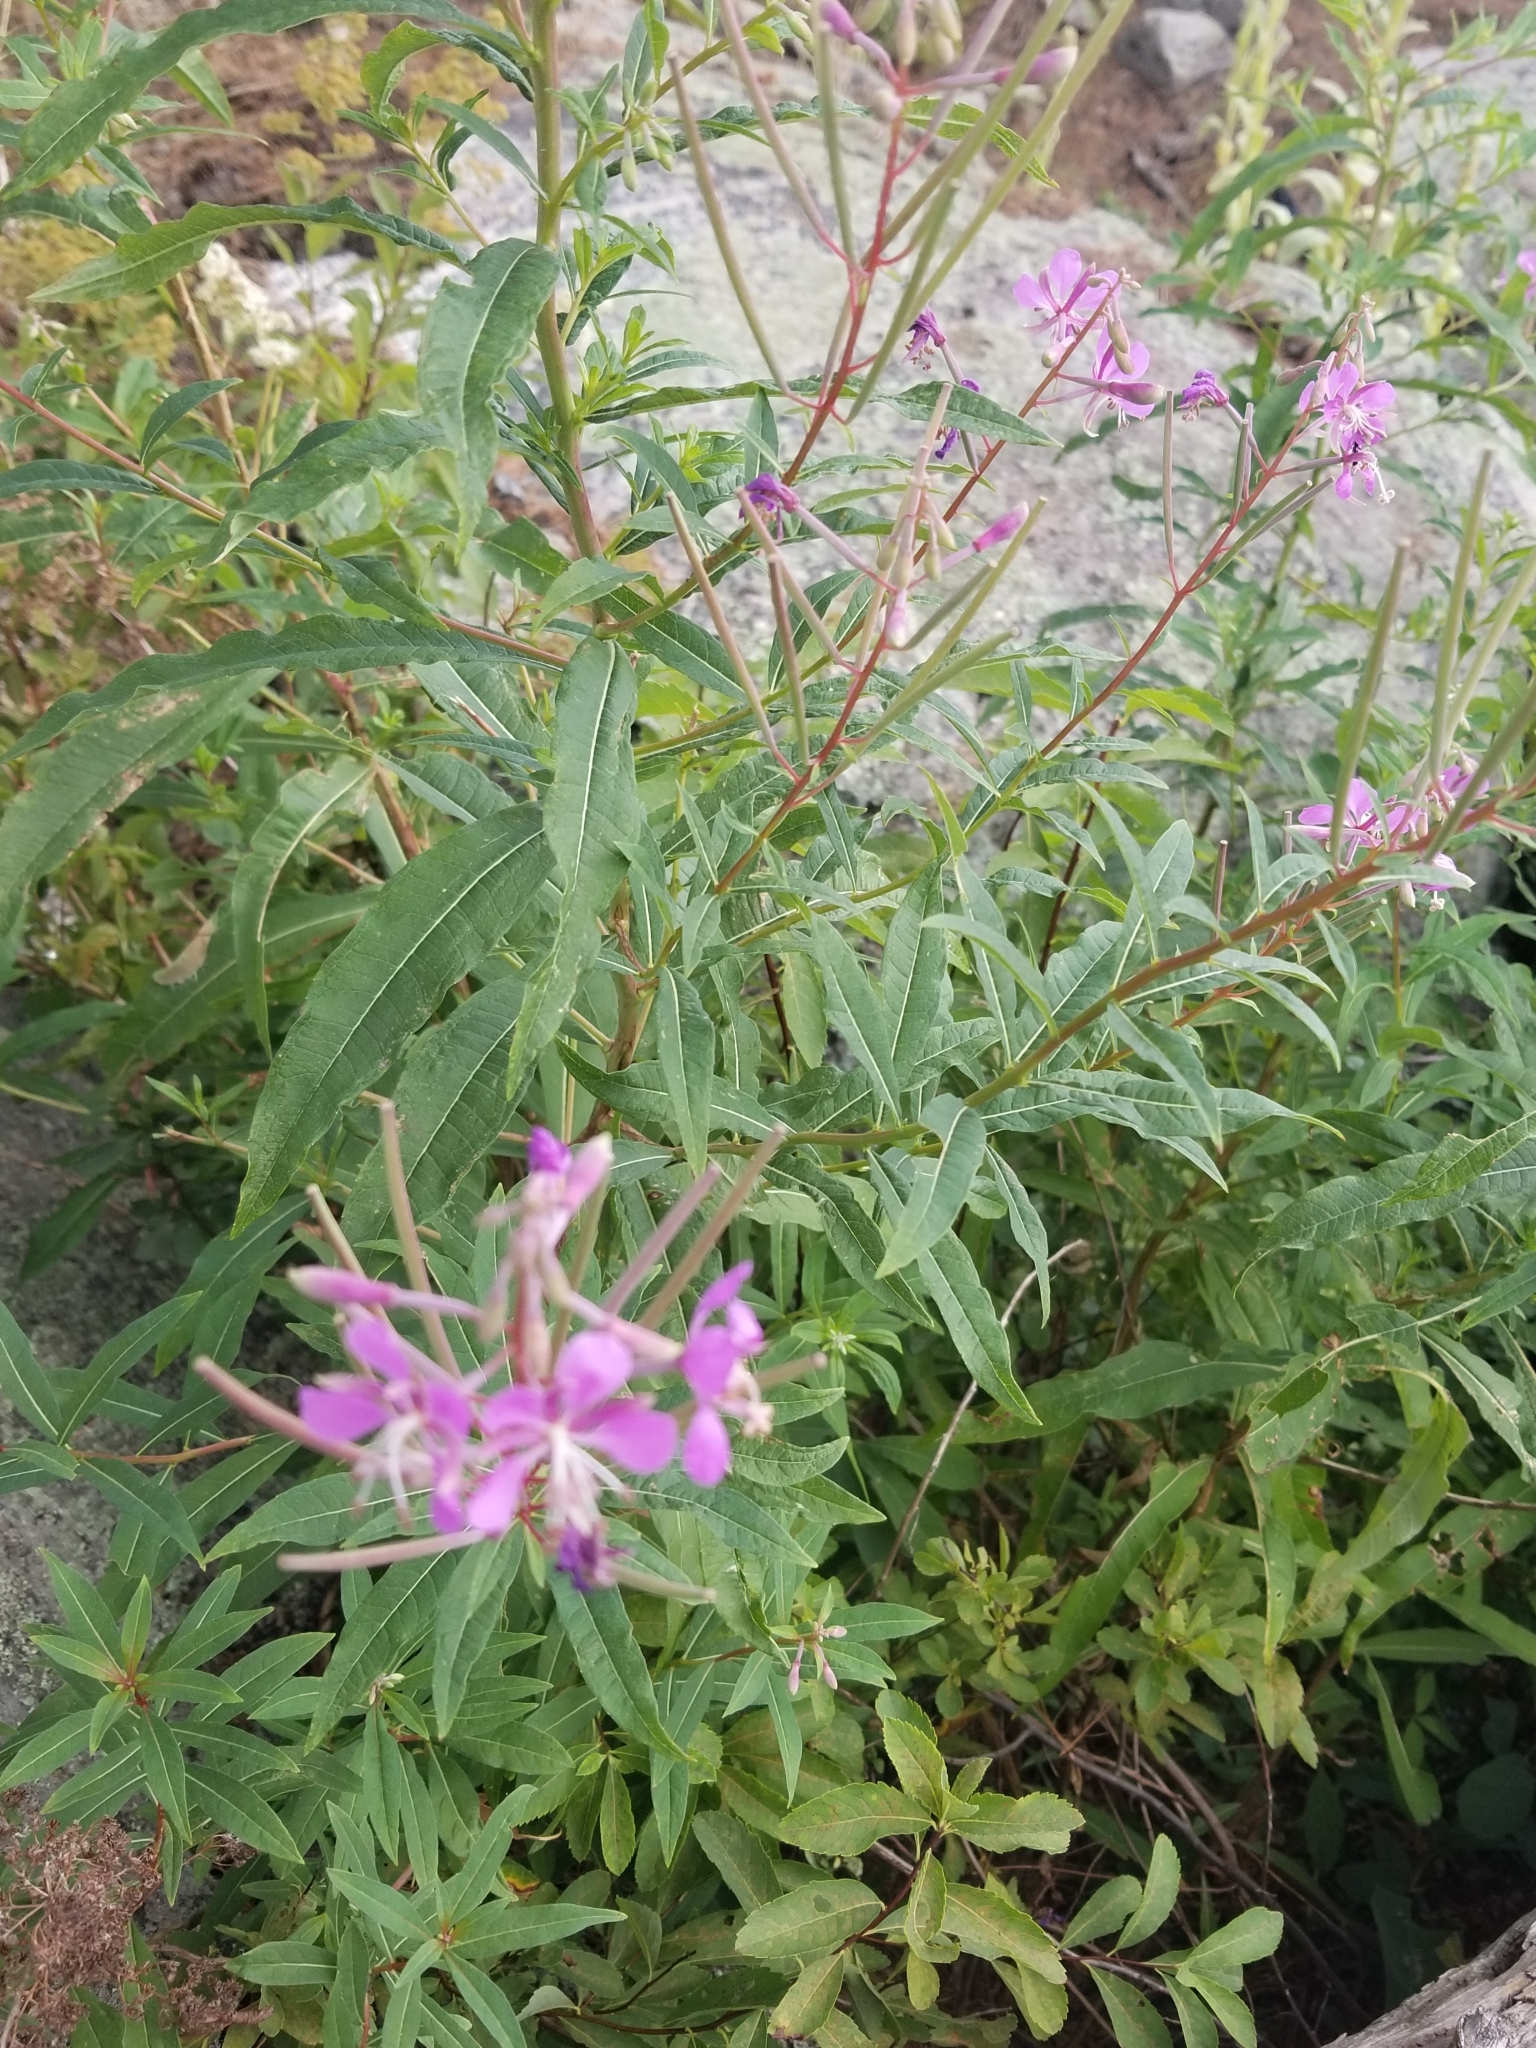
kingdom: Plantae
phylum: Tracheophyta
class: Magnoliopsida
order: Myrtales
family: Onagraceae
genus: Chamaenerion
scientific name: Chamaenerion angustifolium
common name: Fireweed
